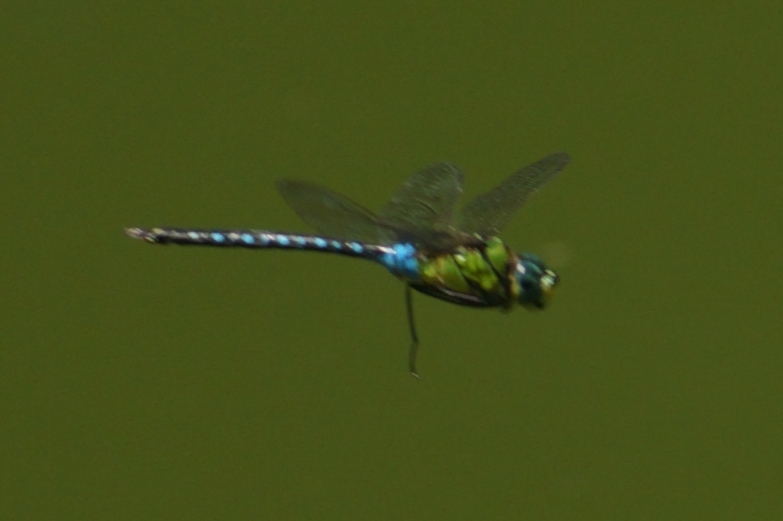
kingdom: Animalia
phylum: Arthropoda
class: Insecta
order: Odonata
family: Aeshnidae
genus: Anax
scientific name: Anax nigrofasciatus
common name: Blue-spotted emperor
